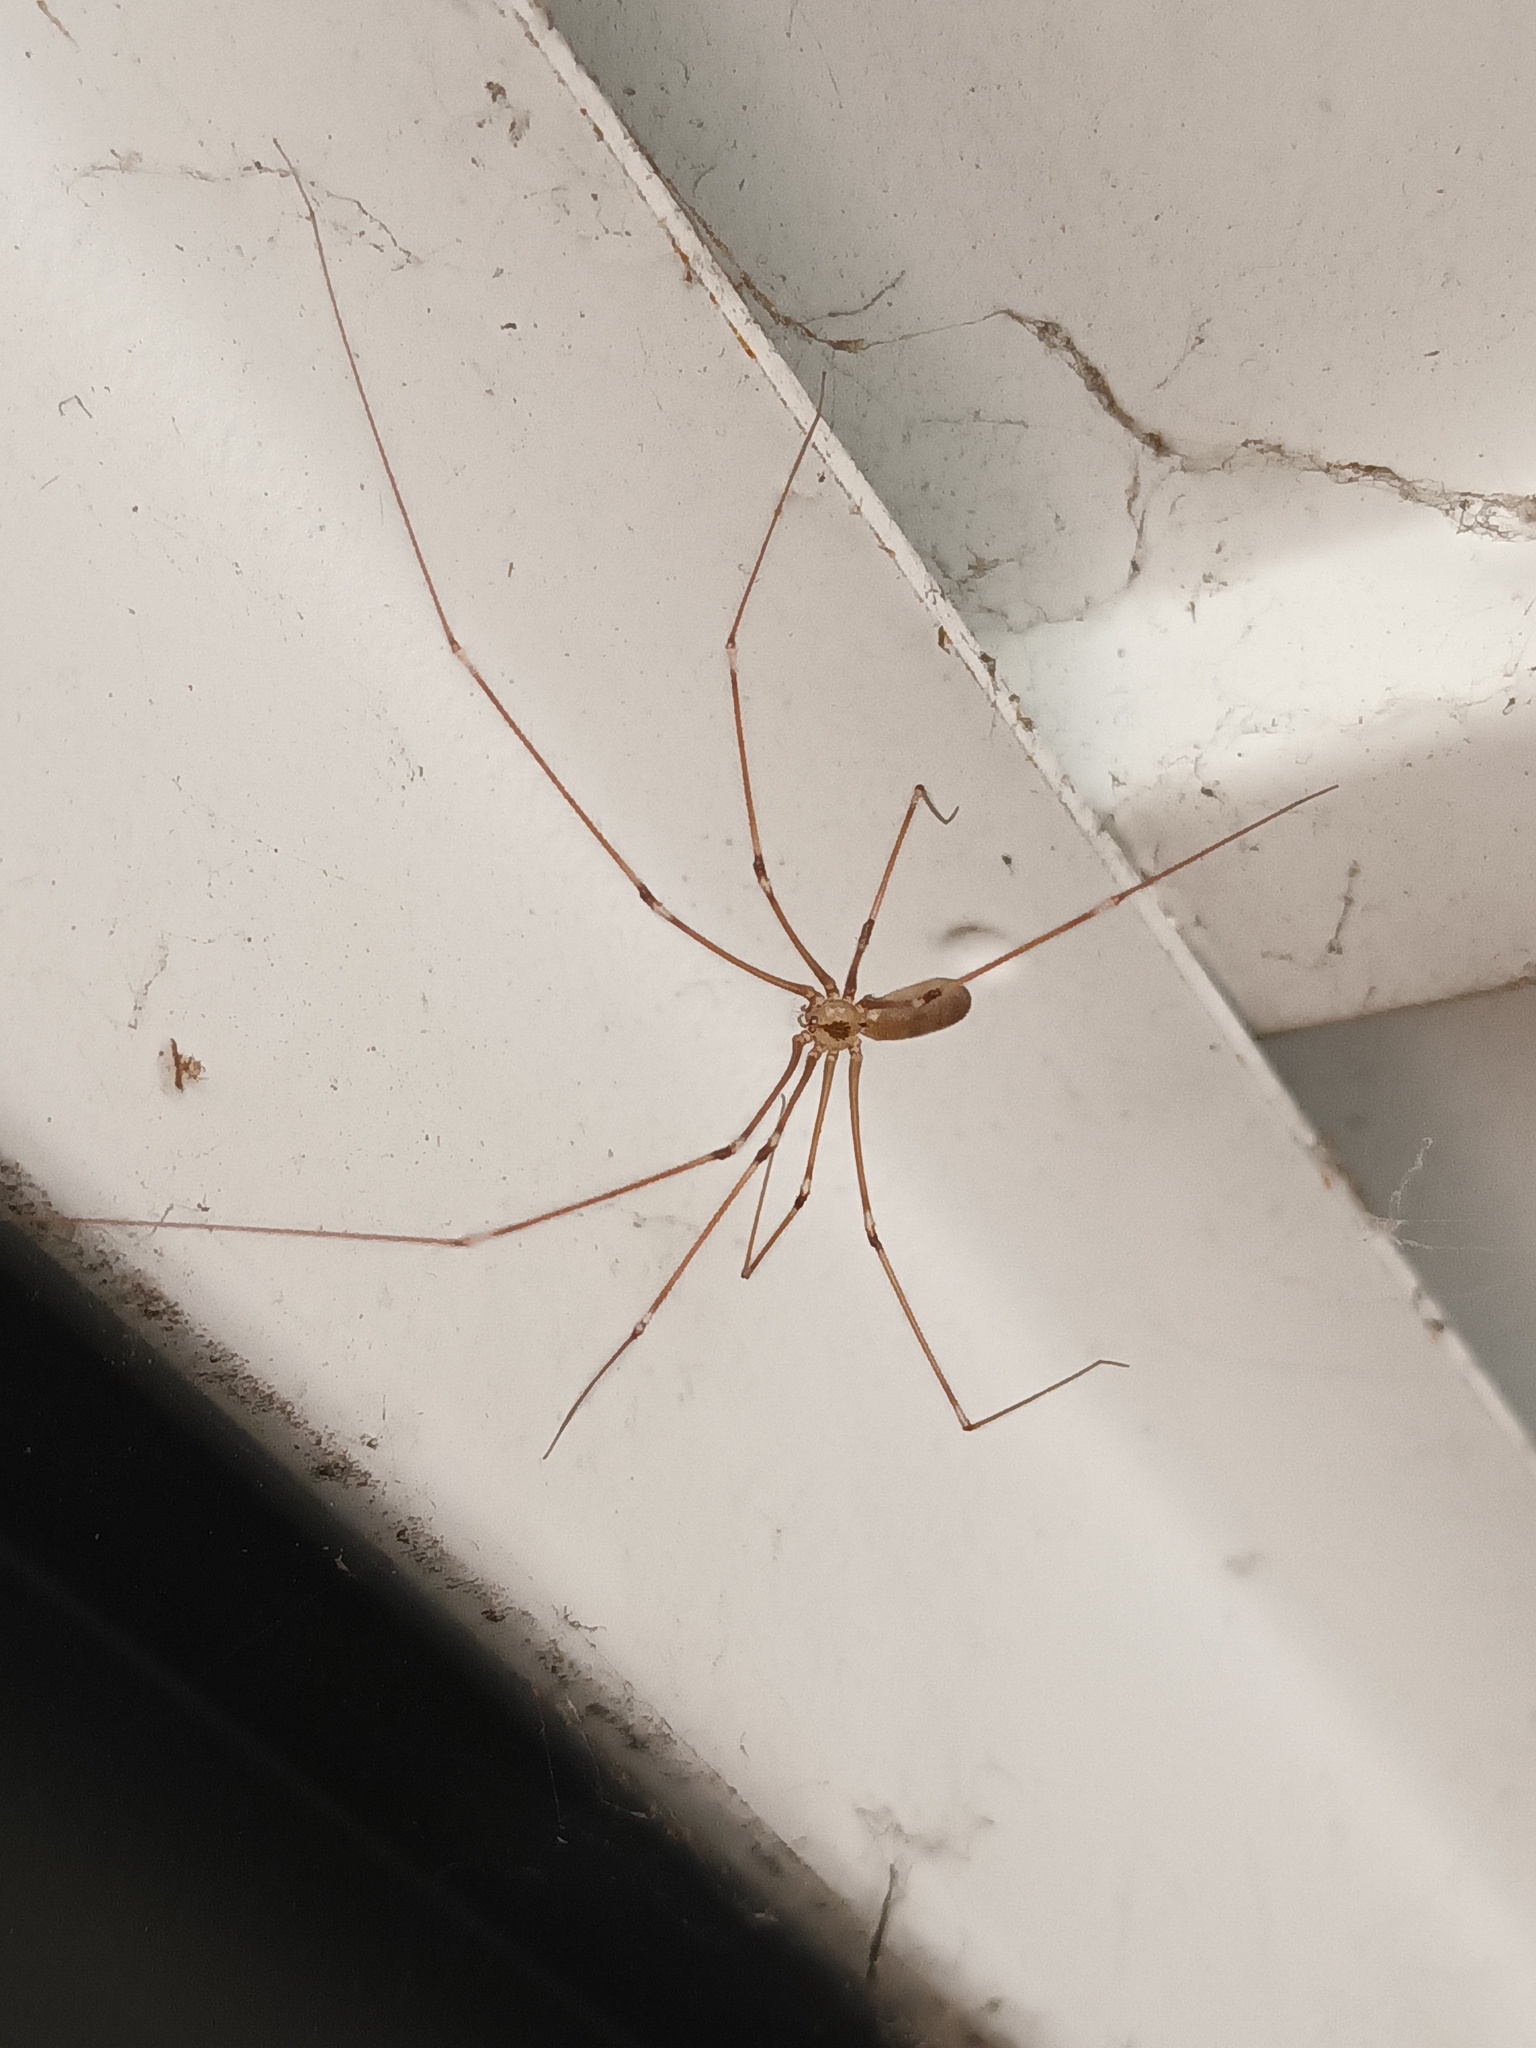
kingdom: Animalia
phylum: Arthropoda
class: Arachnida
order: Araneae
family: Pholcidae
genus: Pholcus
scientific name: Pholcus phalangioides
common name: Longbodied cellar spider
